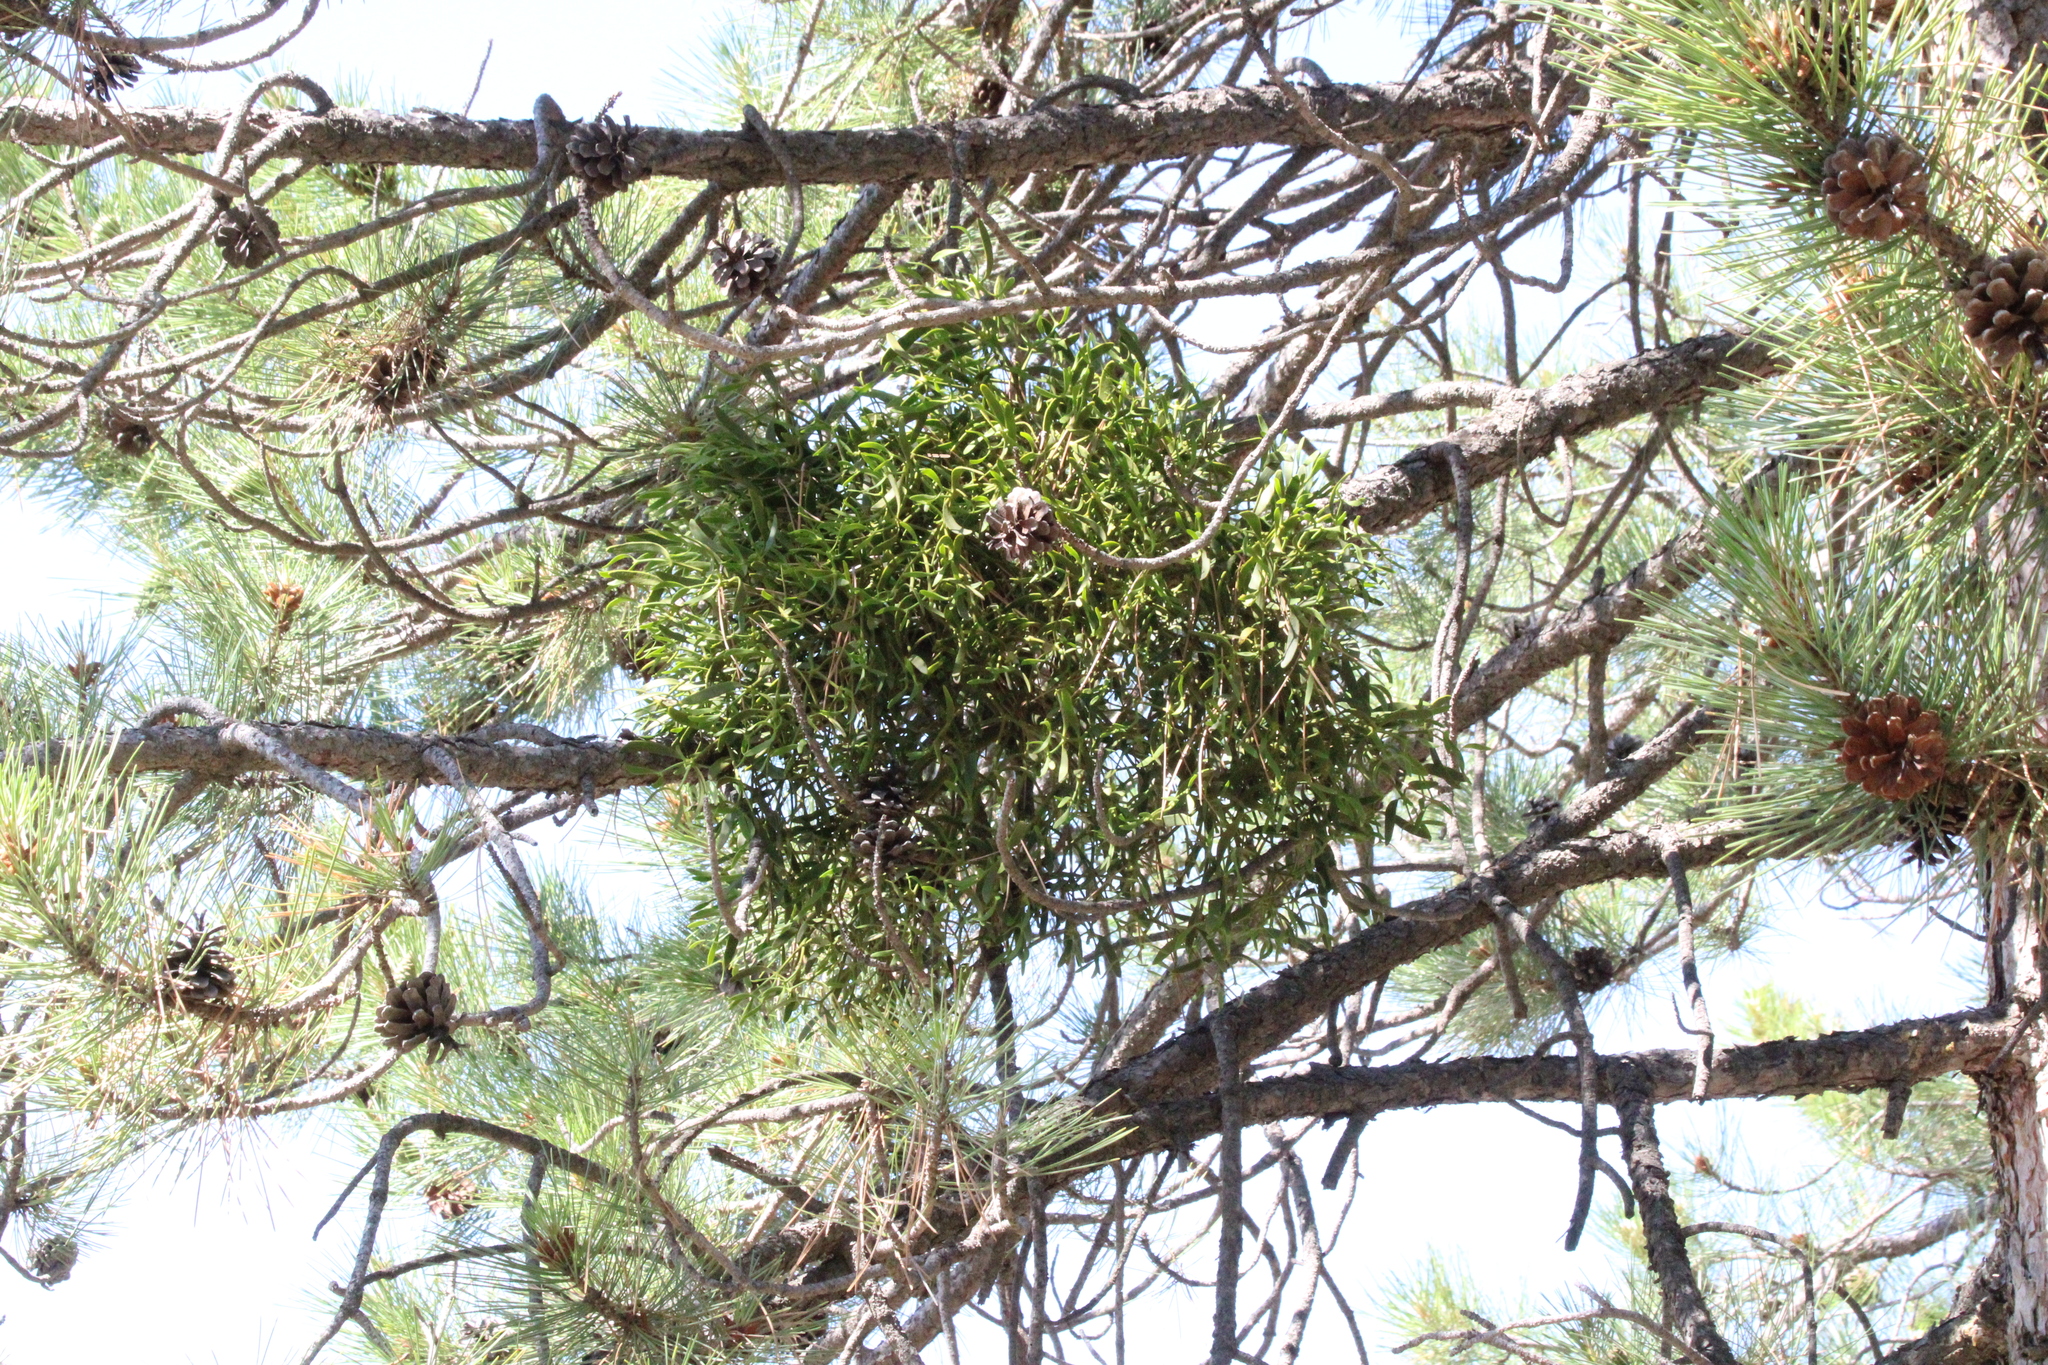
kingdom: Plantae
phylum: Tracheophyta
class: Magnoliopsida
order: Santalales
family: Viscaceae
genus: Viscum
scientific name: Viscum album
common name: Mistletoe
